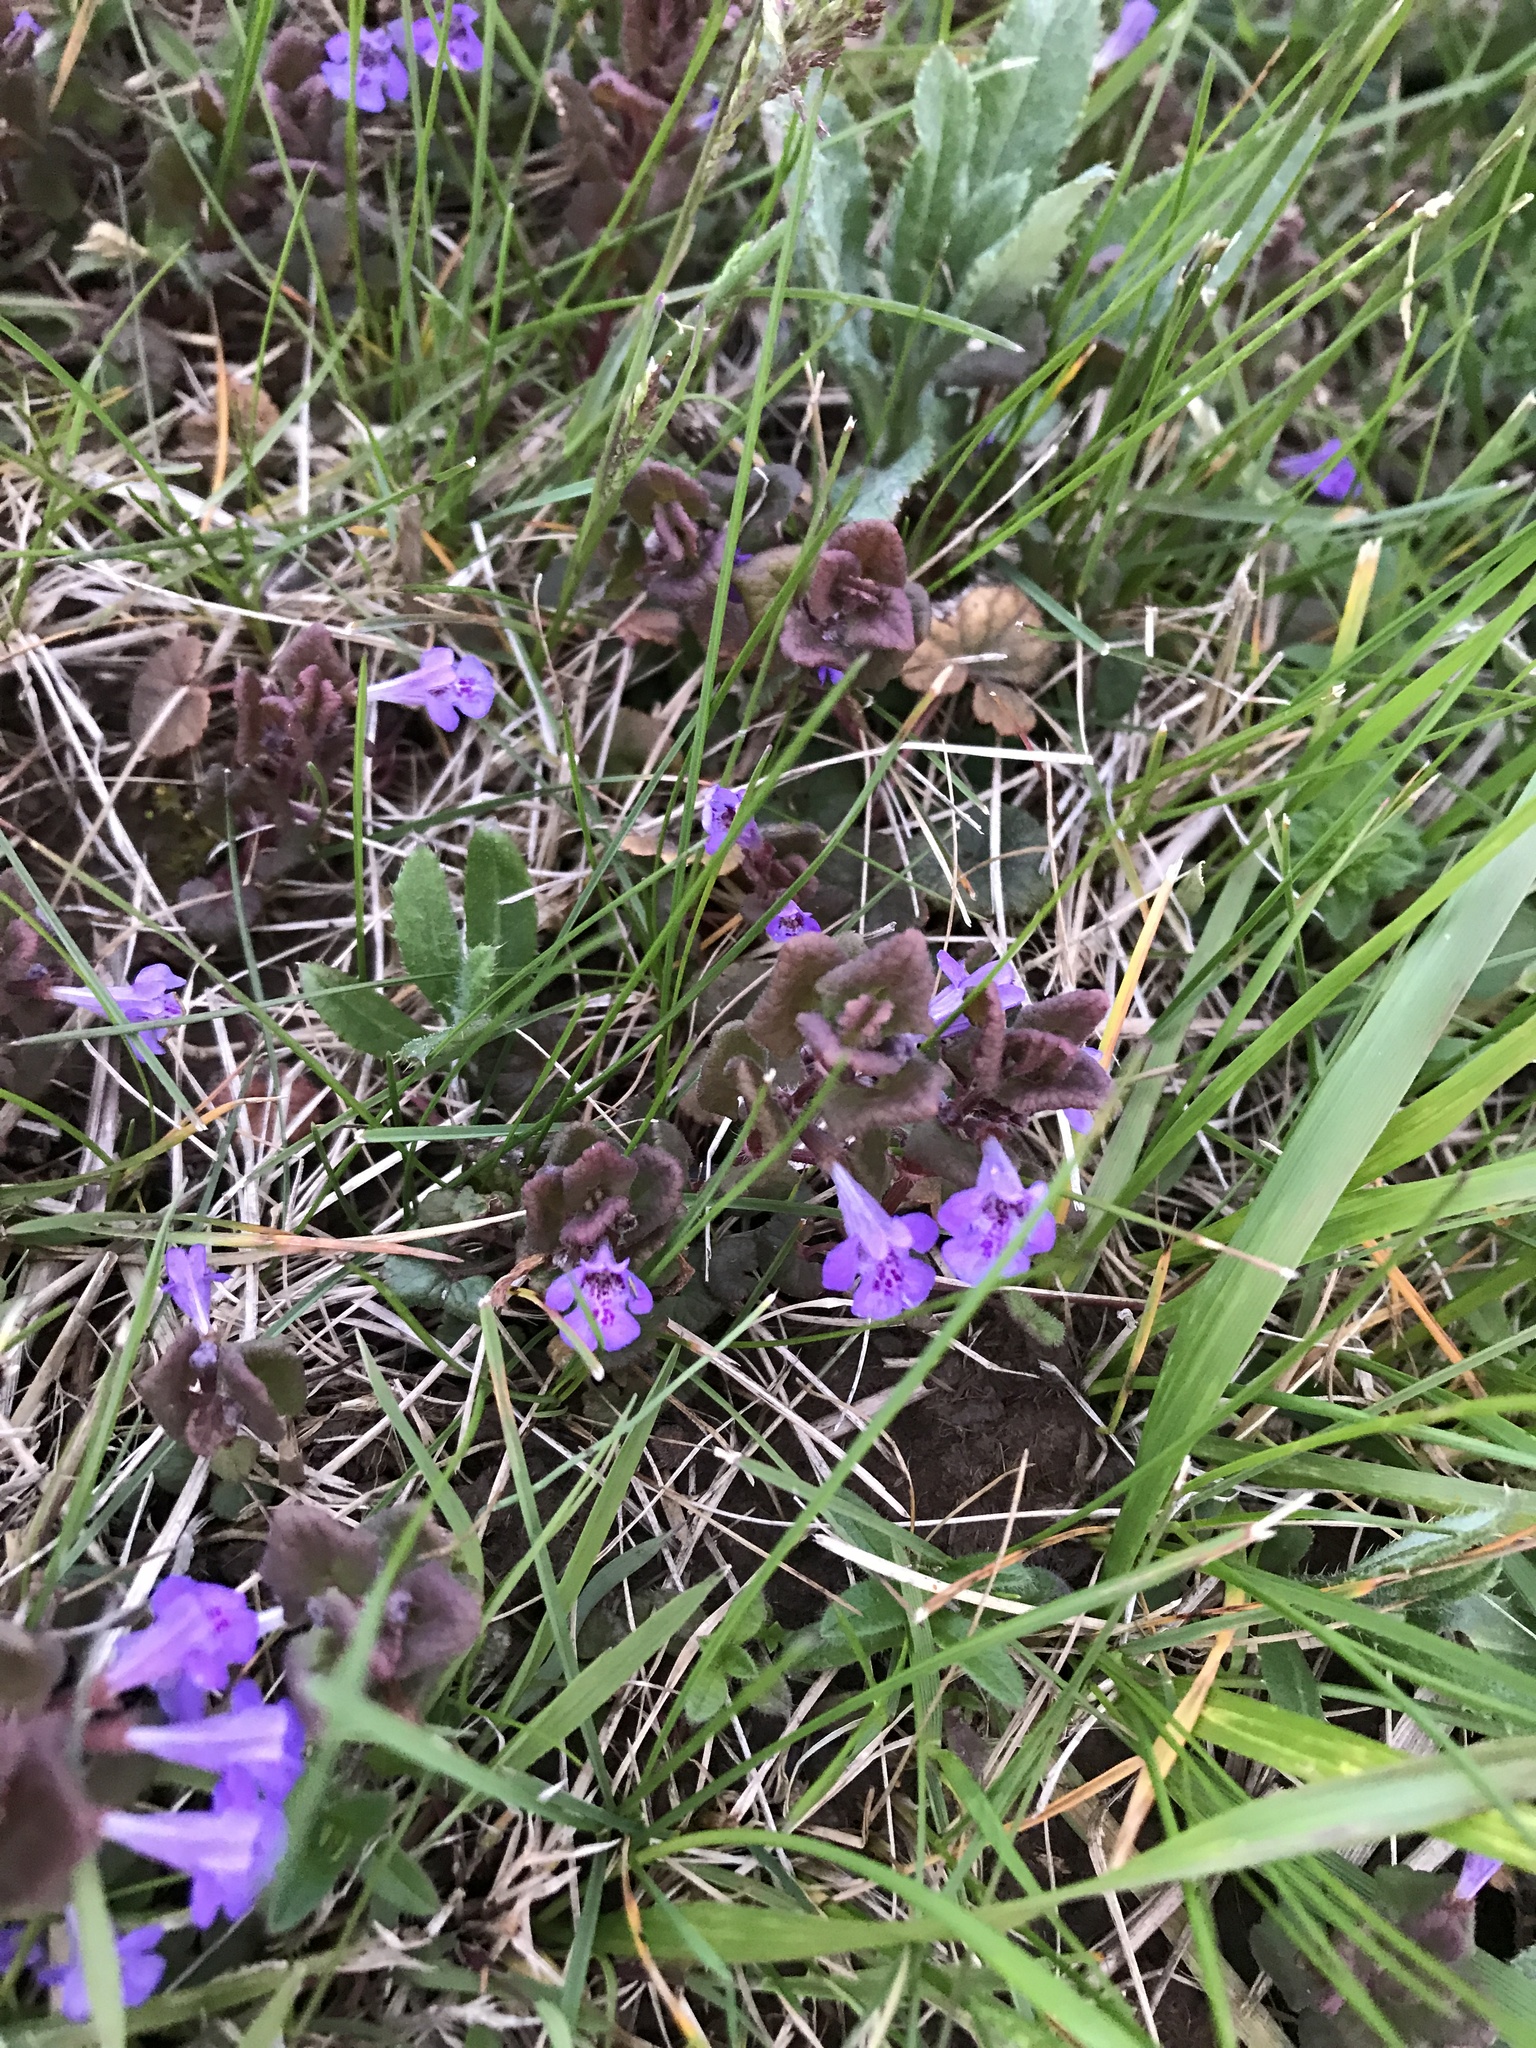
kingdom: Plantae
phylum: Tracheophyta
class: Magnoliopsida
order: Lamiales
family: Lamiaceae
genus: Glechoma
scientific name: Glechoma hederacea
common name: Ground ivy
